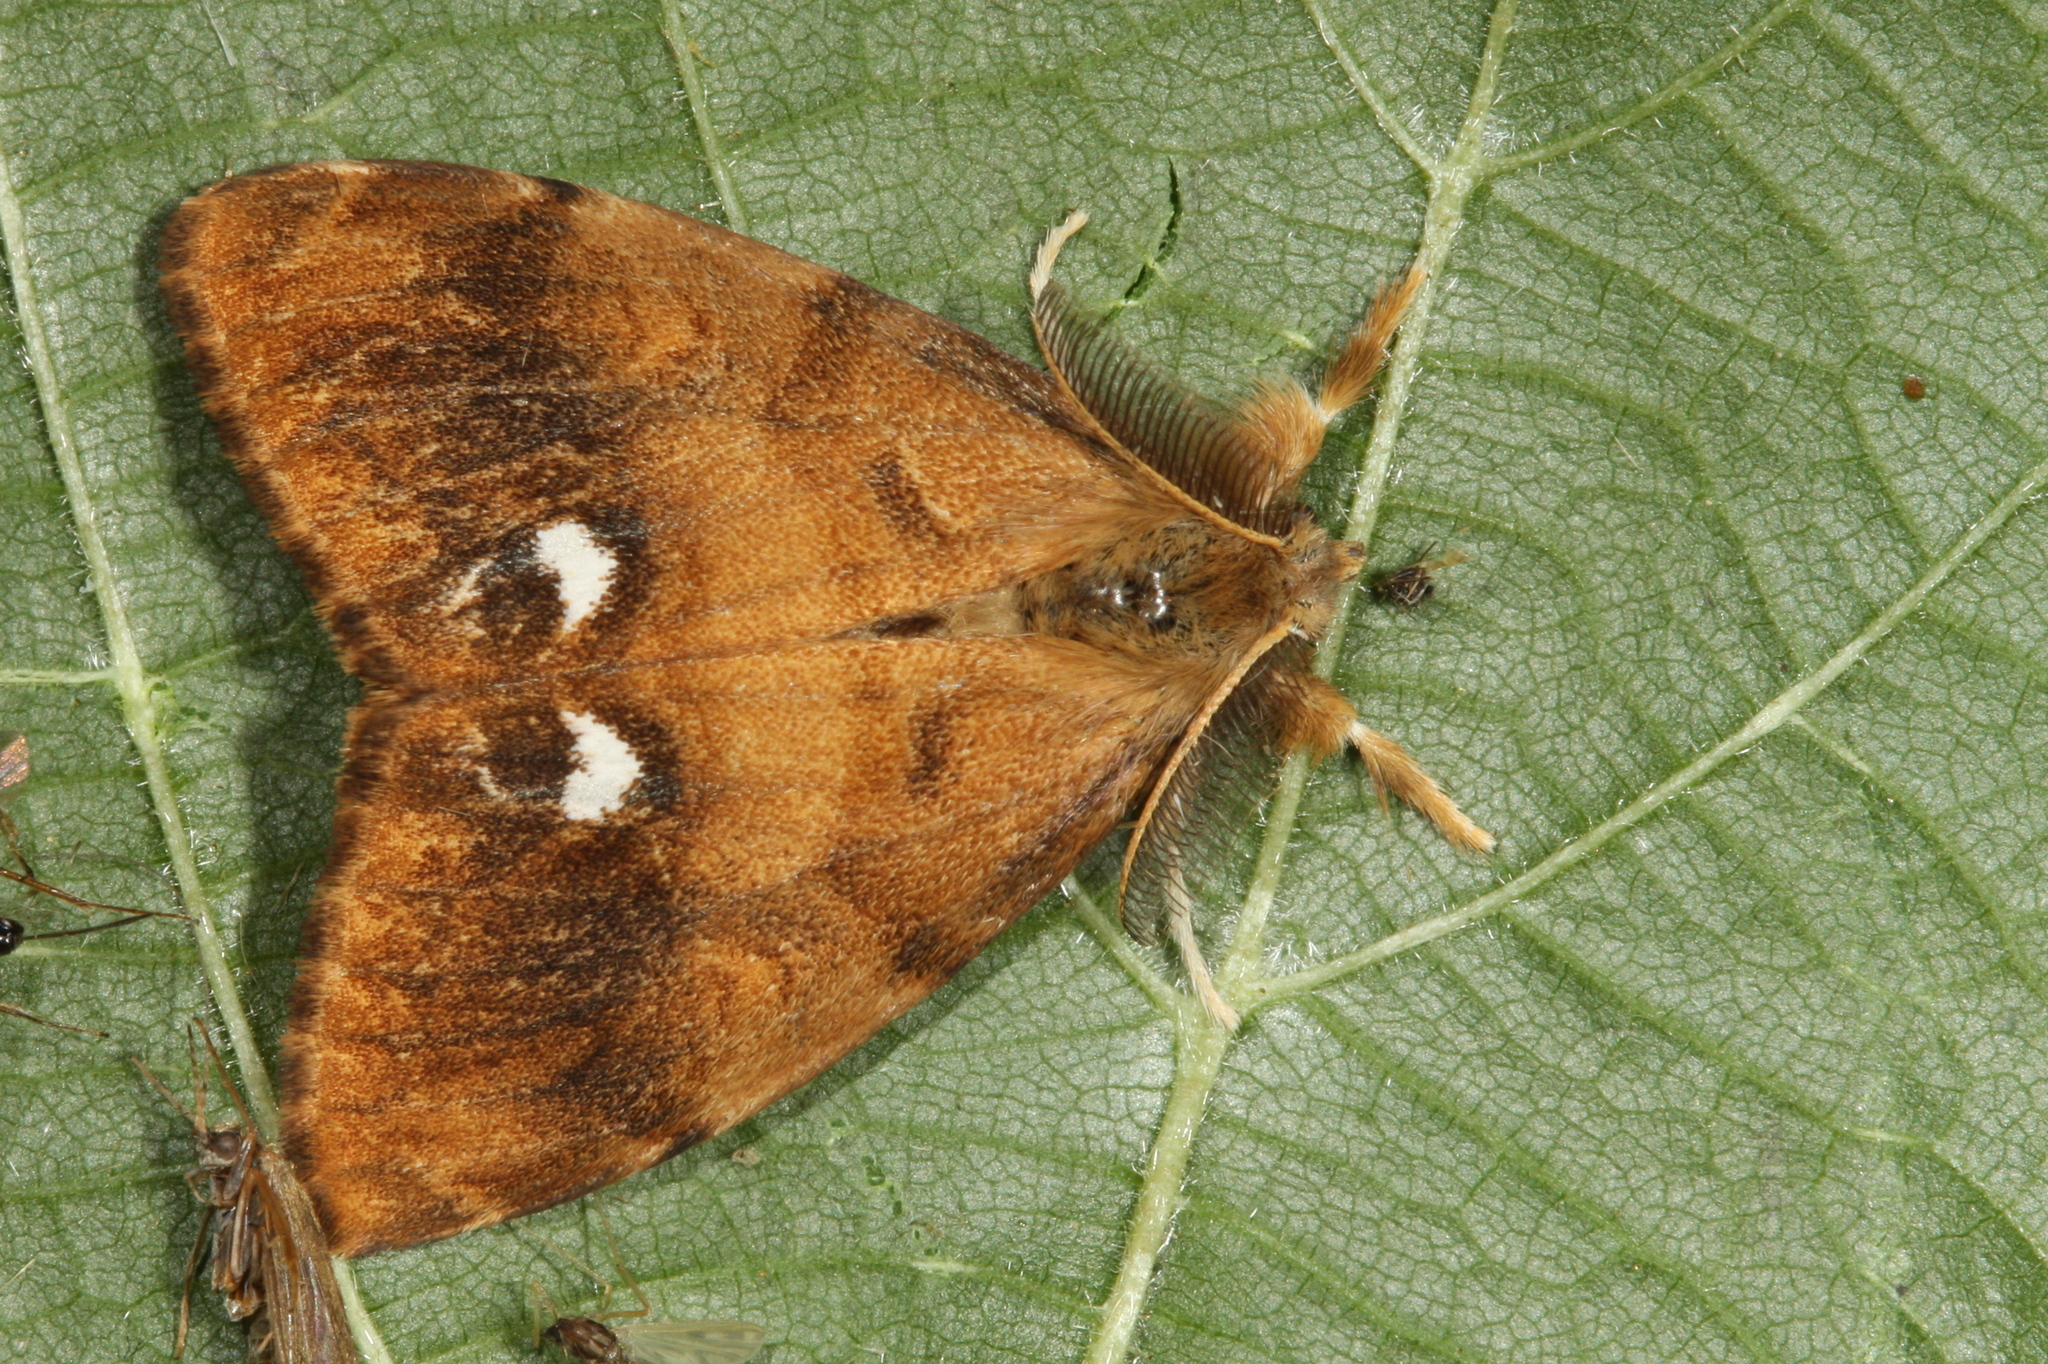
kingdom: Animalia
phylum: Arthropoda
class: Insecta
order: Lepidoptera
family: Erebidae
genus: Orgyia
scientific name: Orgyia antiqua
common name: Vapourer
